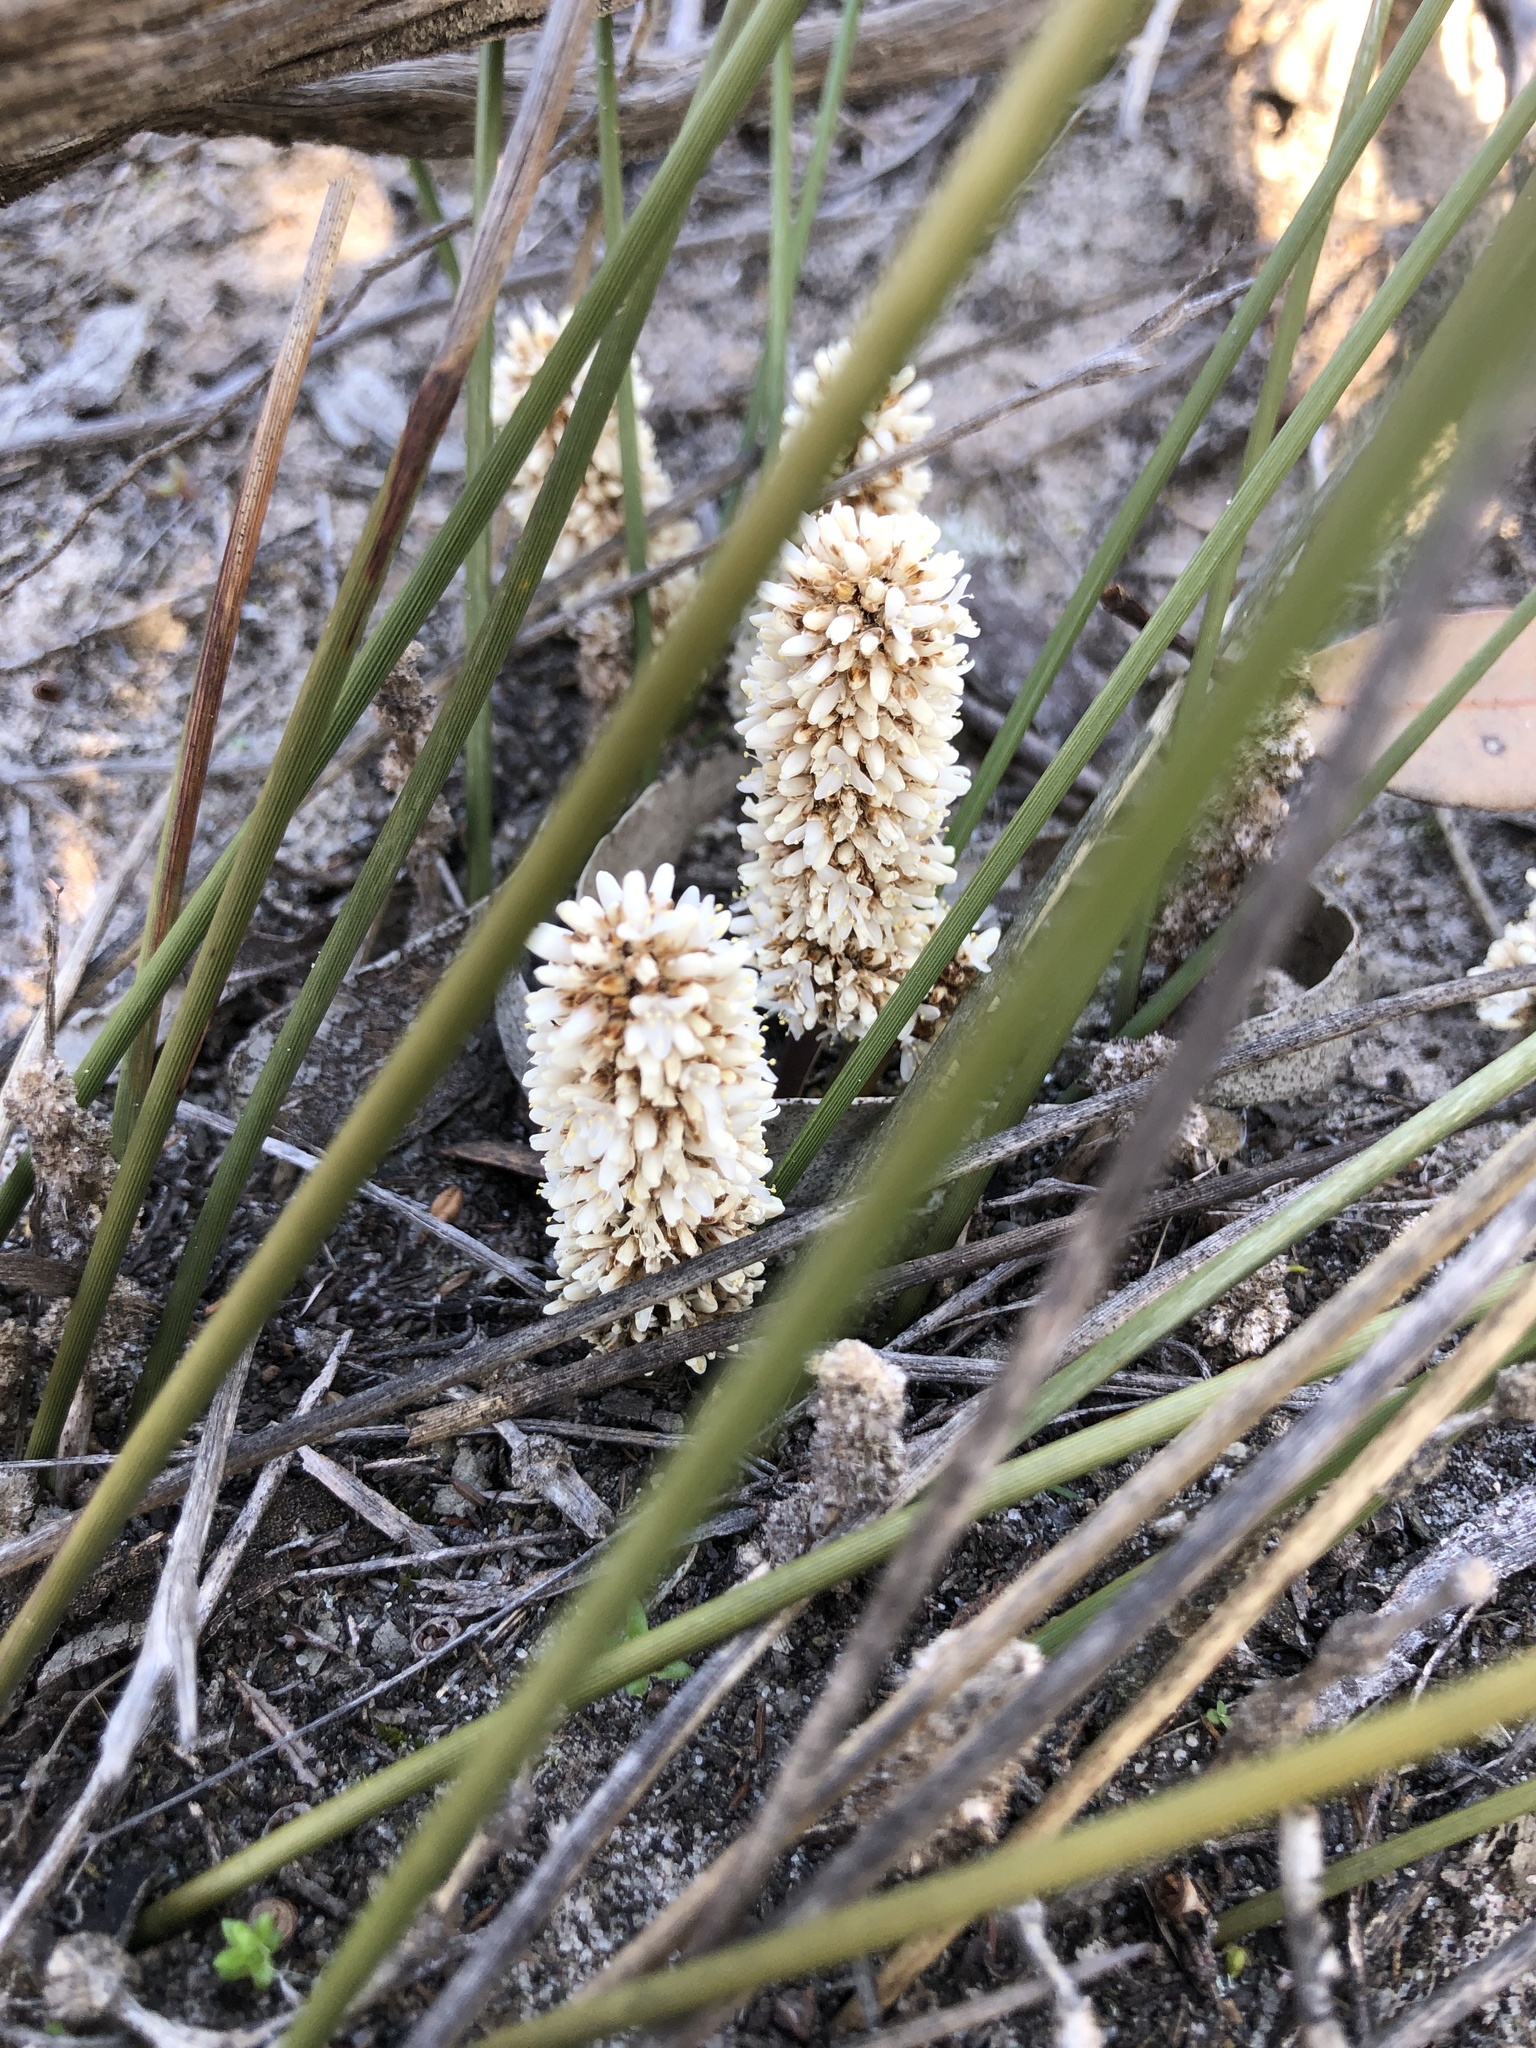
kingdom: Plantae
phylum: Tracheophyta
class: Liliopsida
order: Asparagales
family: Asparagaceae
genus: Lomandra
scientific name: Lomandra juncea
